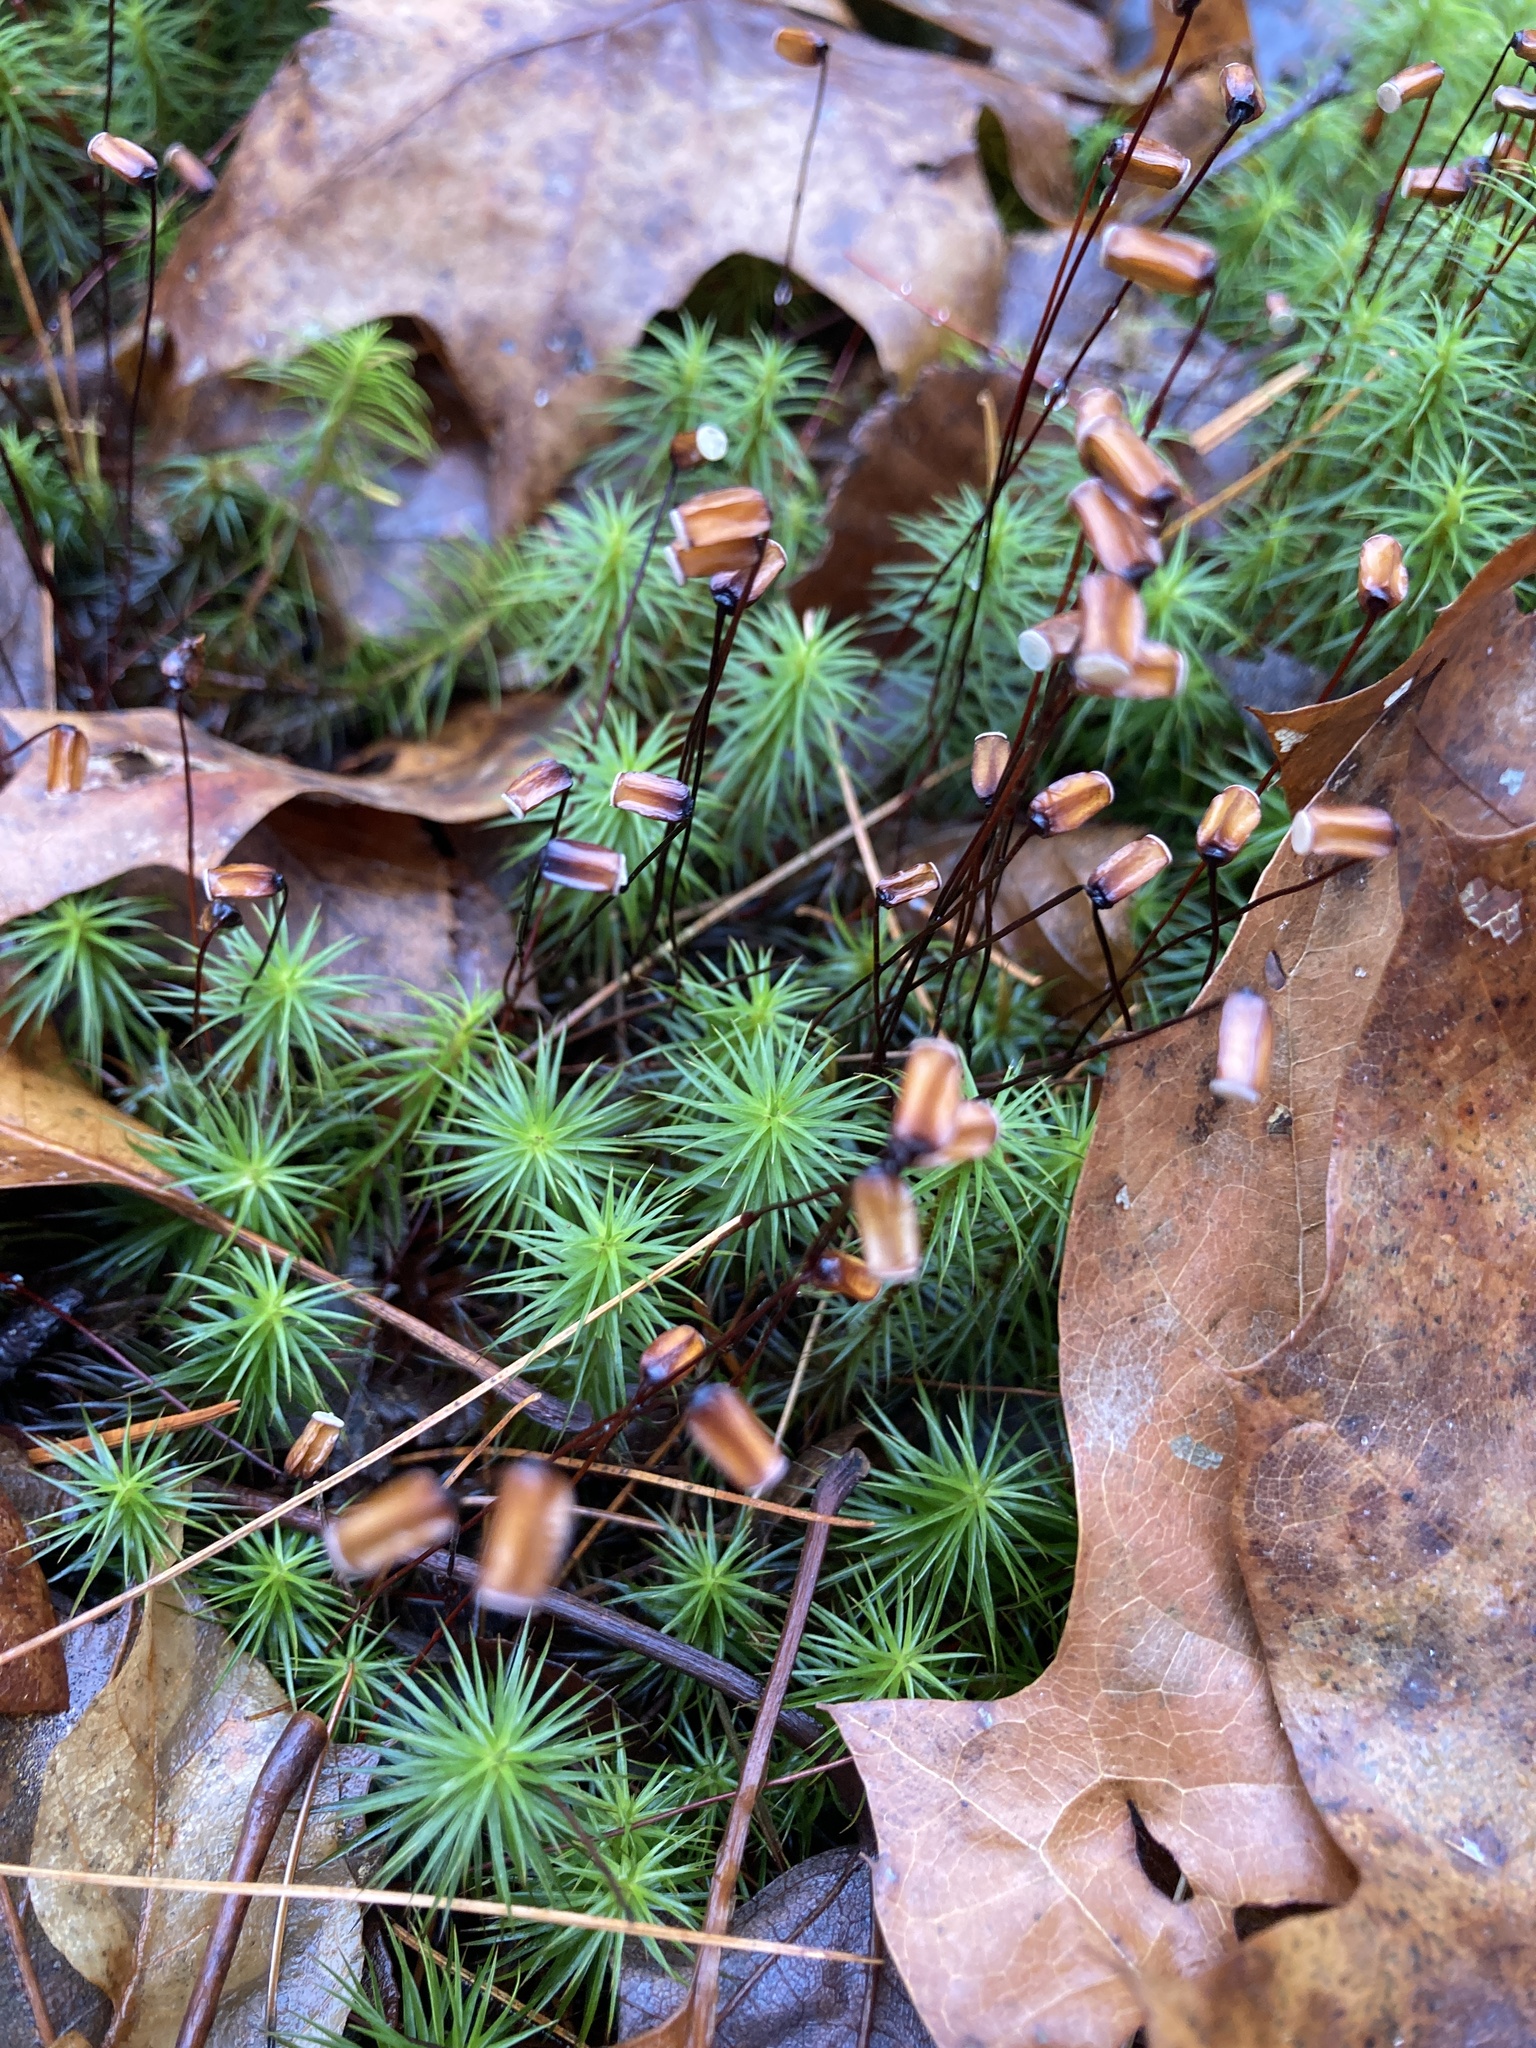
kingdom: Plantae
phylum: Bryophyta
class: Polytrichopsida
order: Polytrichales
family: Polytrichaceae
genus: Polytrichum
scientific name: Polytrichum commune
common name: Common haircap
